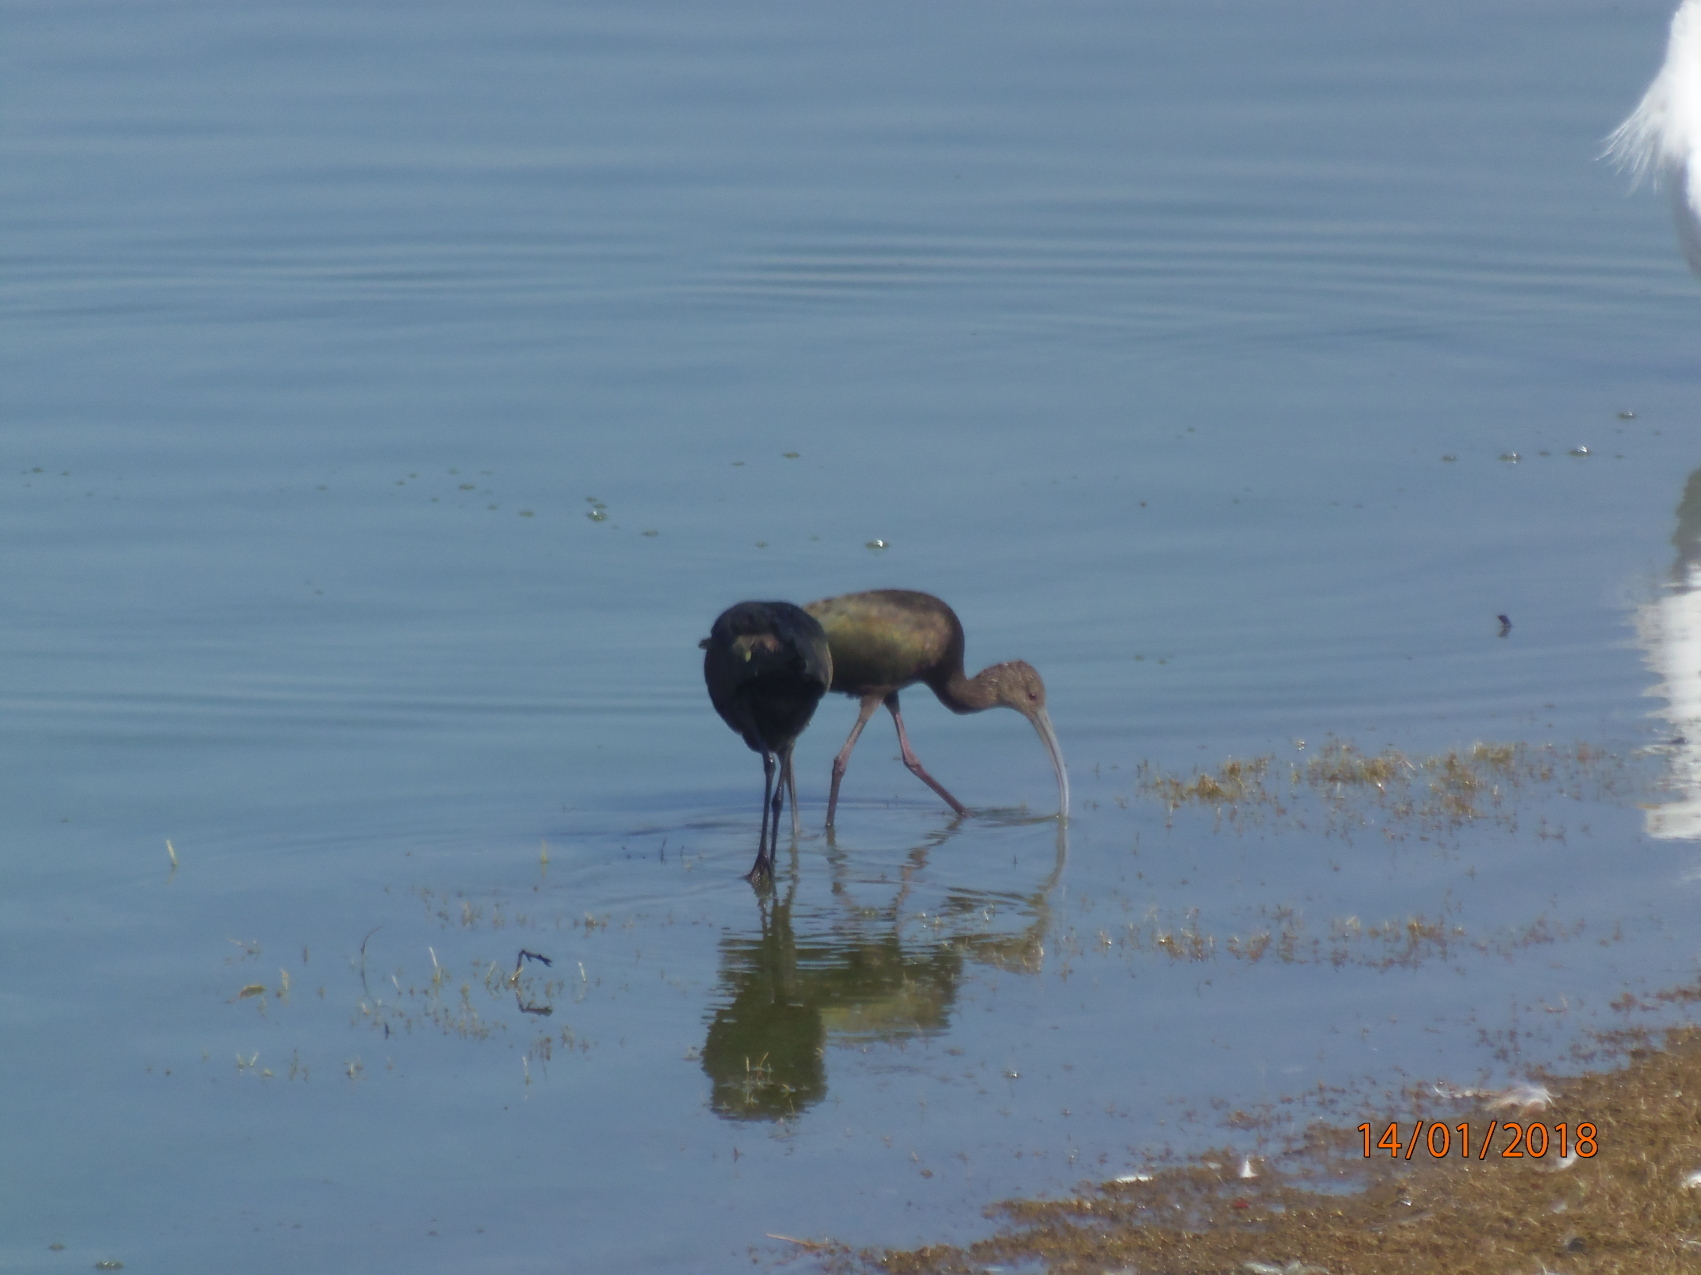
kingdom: Animalia
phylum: Chordata
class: Aves
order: Pelecaniformes
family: Threskiornithidae
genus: Plegadis
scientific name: Plegadis chihi
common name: White-faced ibis
